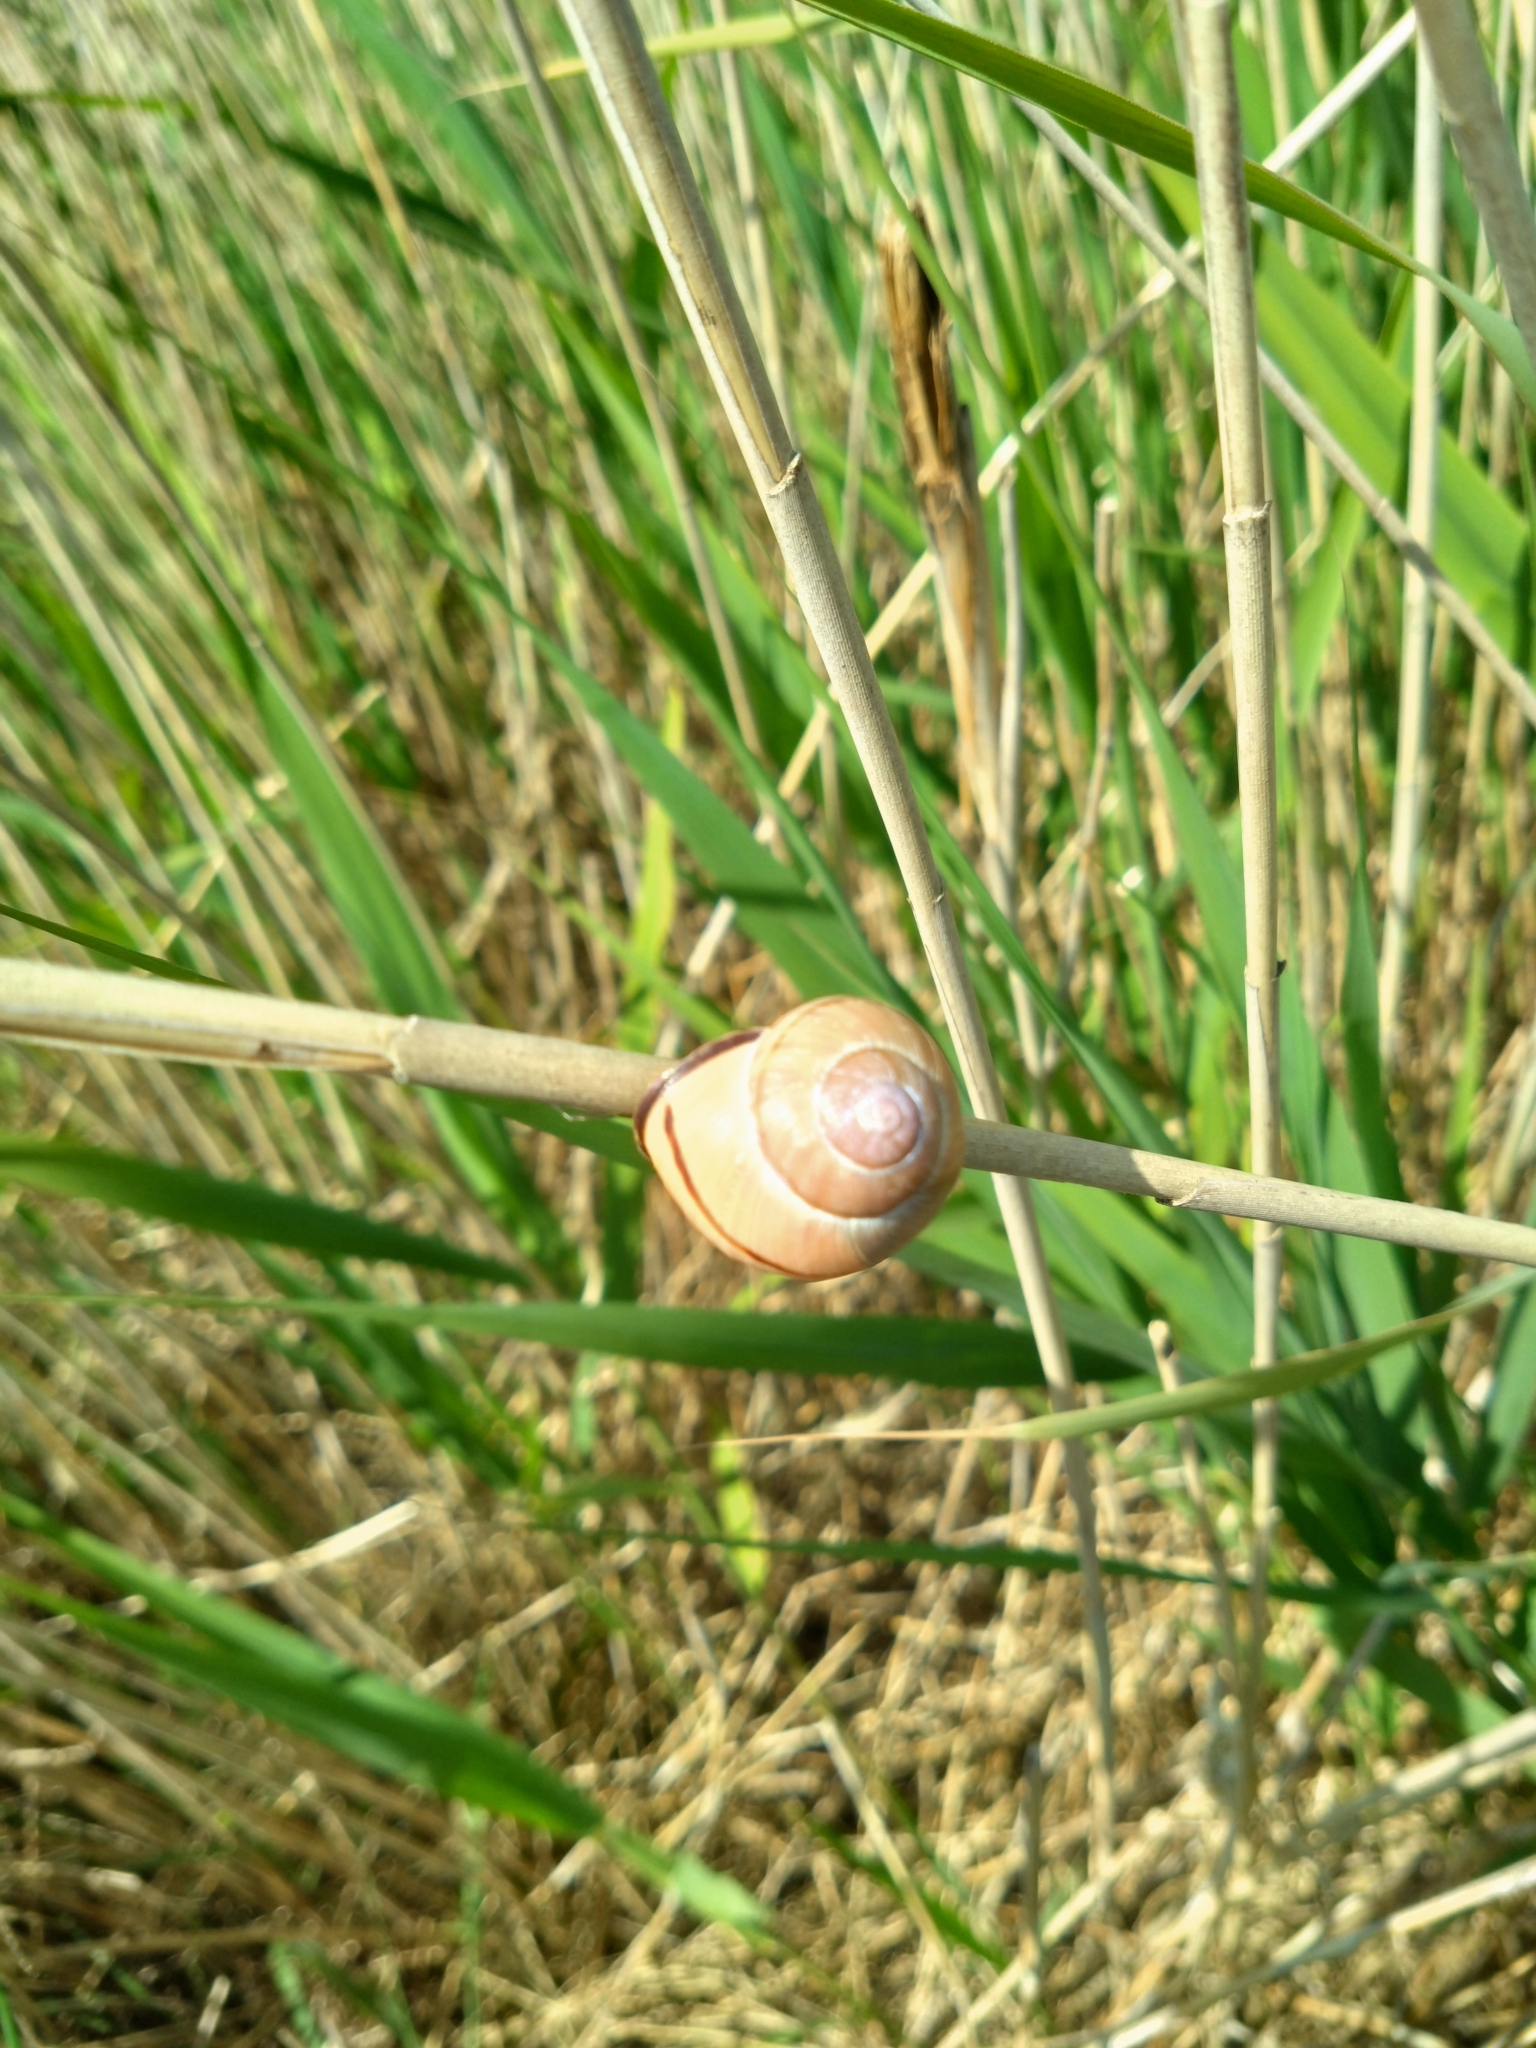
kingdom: Animalia
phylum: Mollusca
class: Gastropoda
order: Stylommatophora
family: Helicidae
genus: Cepaea
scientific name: Cepaea nemoralis
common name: Grovesnail
